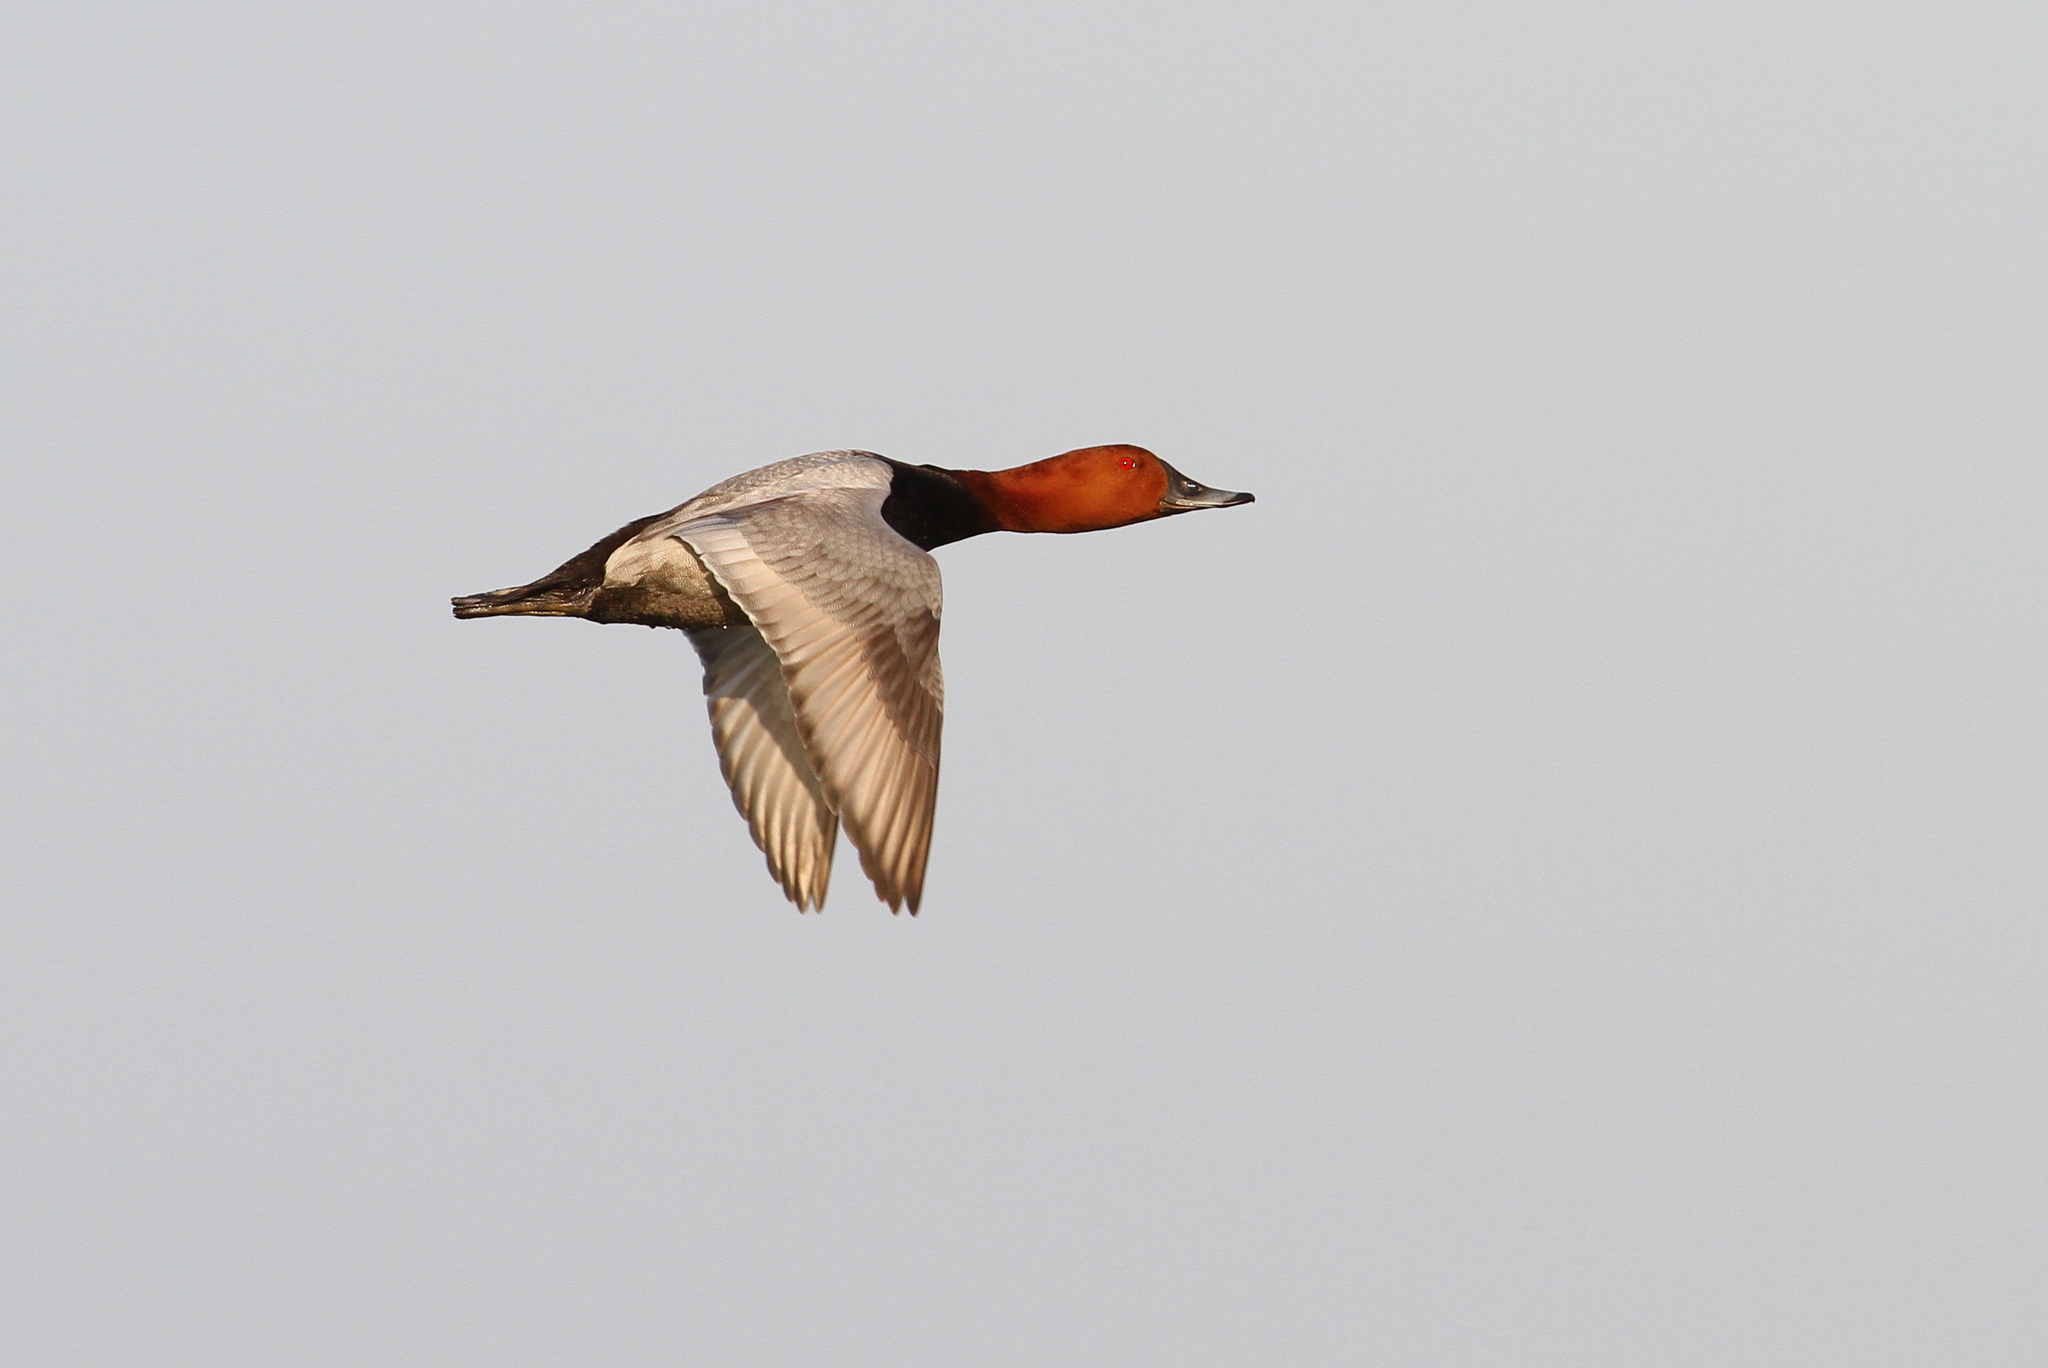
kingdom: Animalia
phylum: Chordata
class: Aves
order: Anseriformes
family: Anatidae
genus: Aythya
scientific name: Aythya ferina
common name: Common pochard
